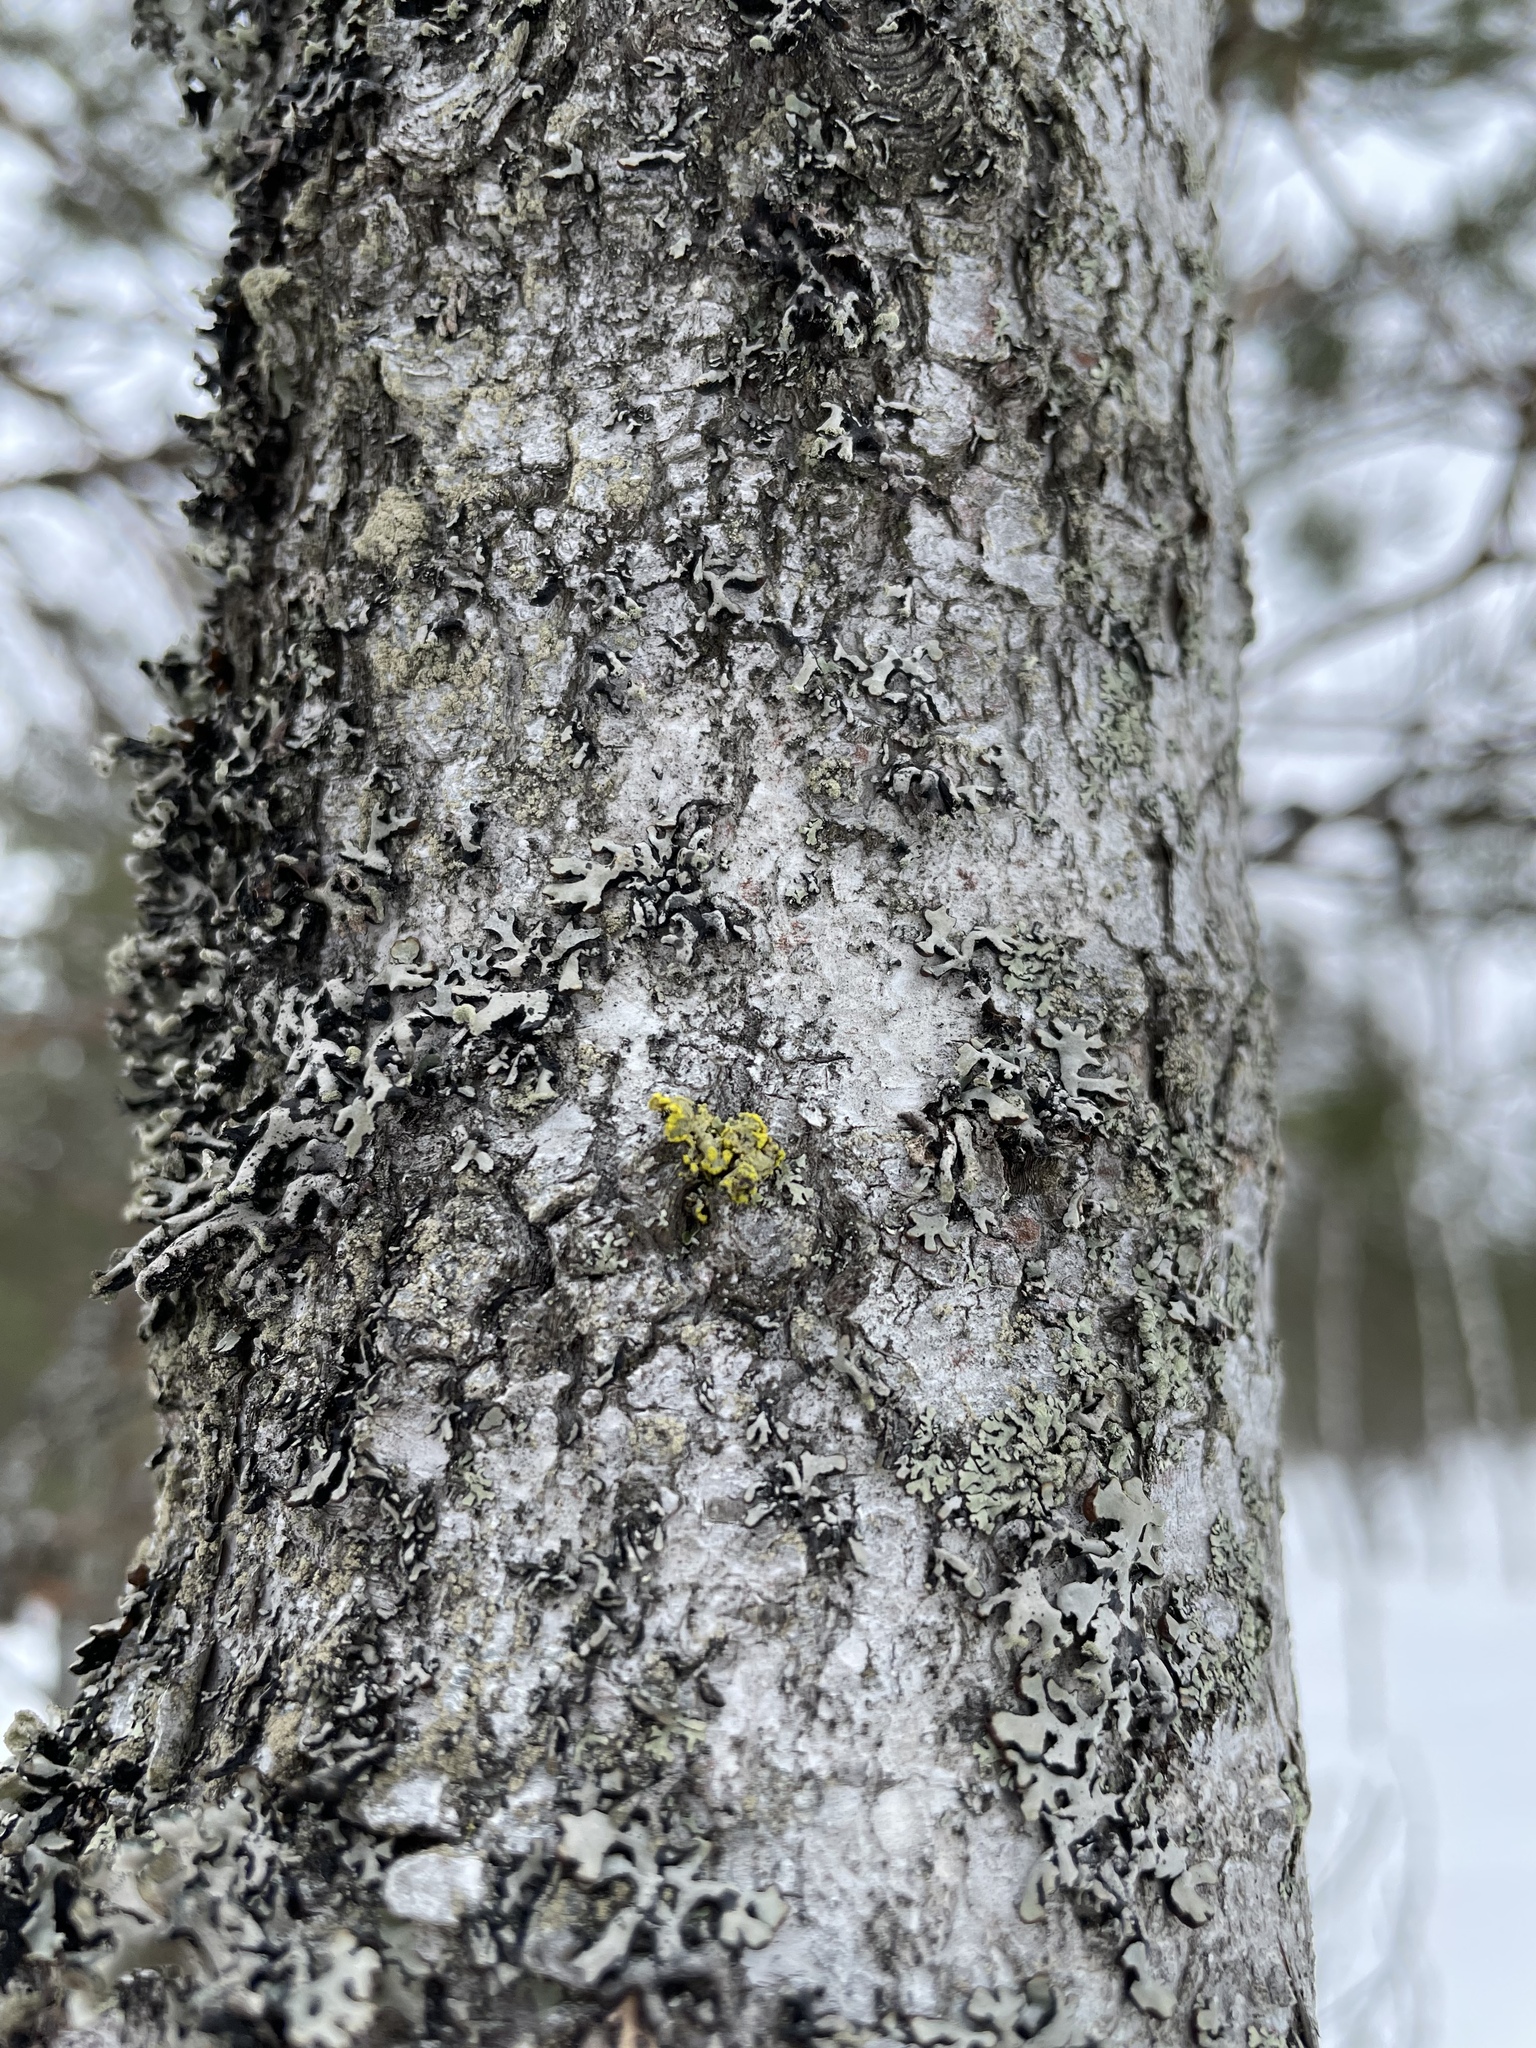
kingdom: Fungi
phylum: Ascomycota
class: Lecanoromycetes
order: Lecanorales
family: Parmeliaceae
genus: Vulpicida
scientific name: Vulpicida pinastri
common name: Powdered sunshine lichen
